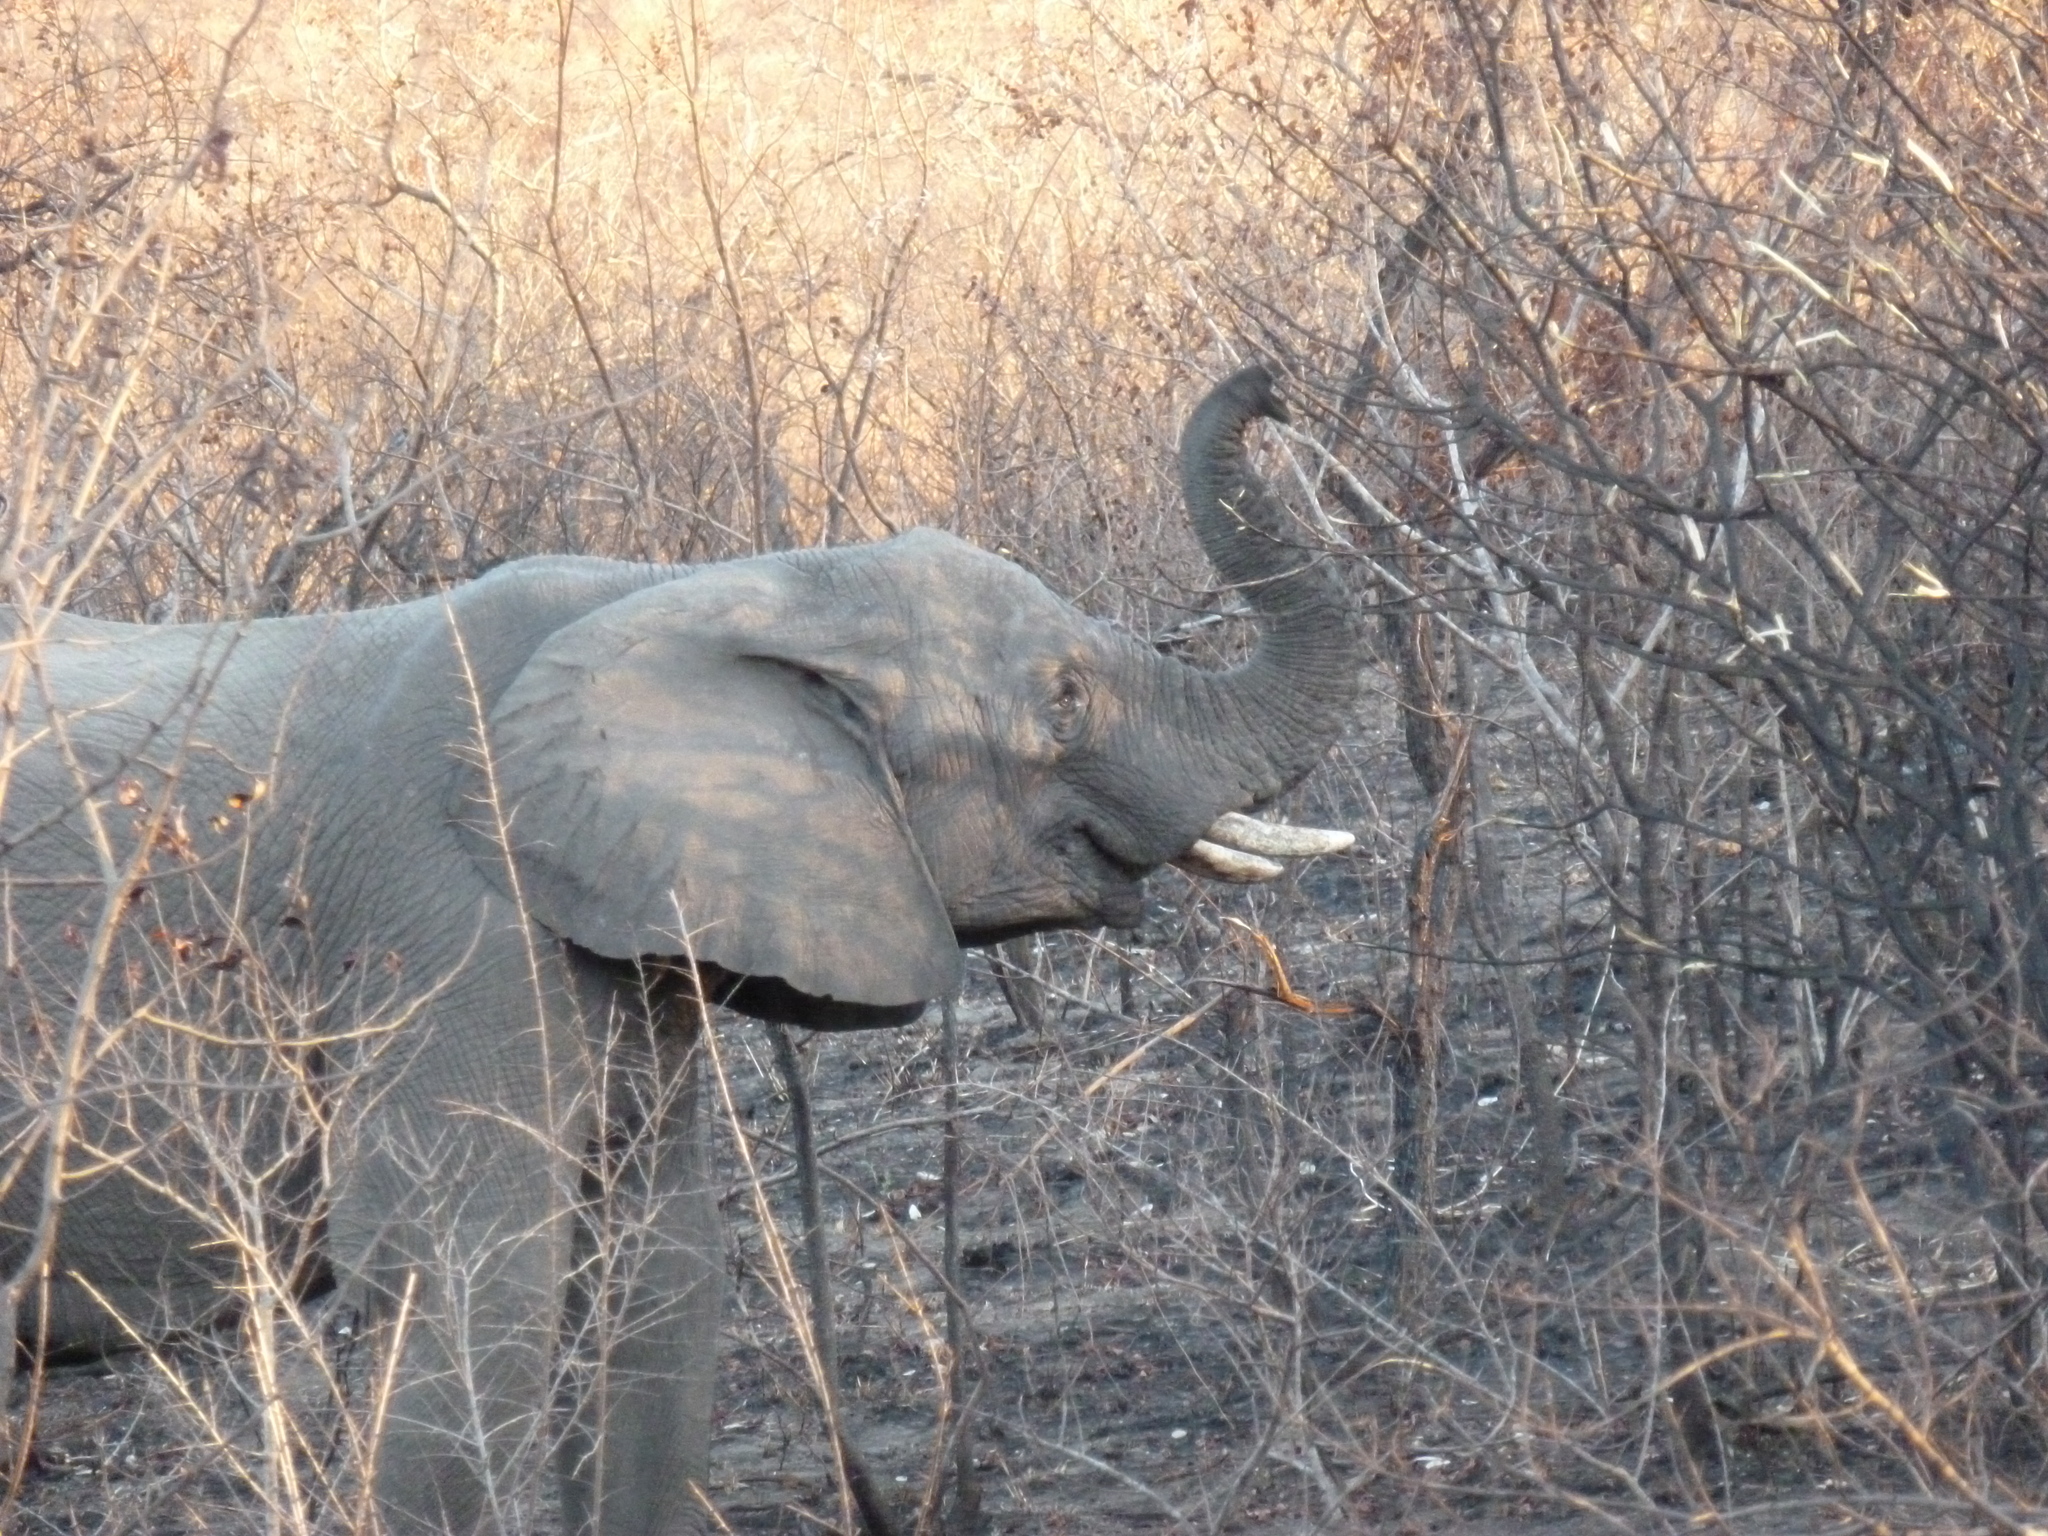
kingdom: Animalia
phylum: Chordata
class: Mammalia
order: Proboscidea
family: Elephantidae
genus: Loxodonta
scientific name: Loxodonta africana
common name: African elephant
